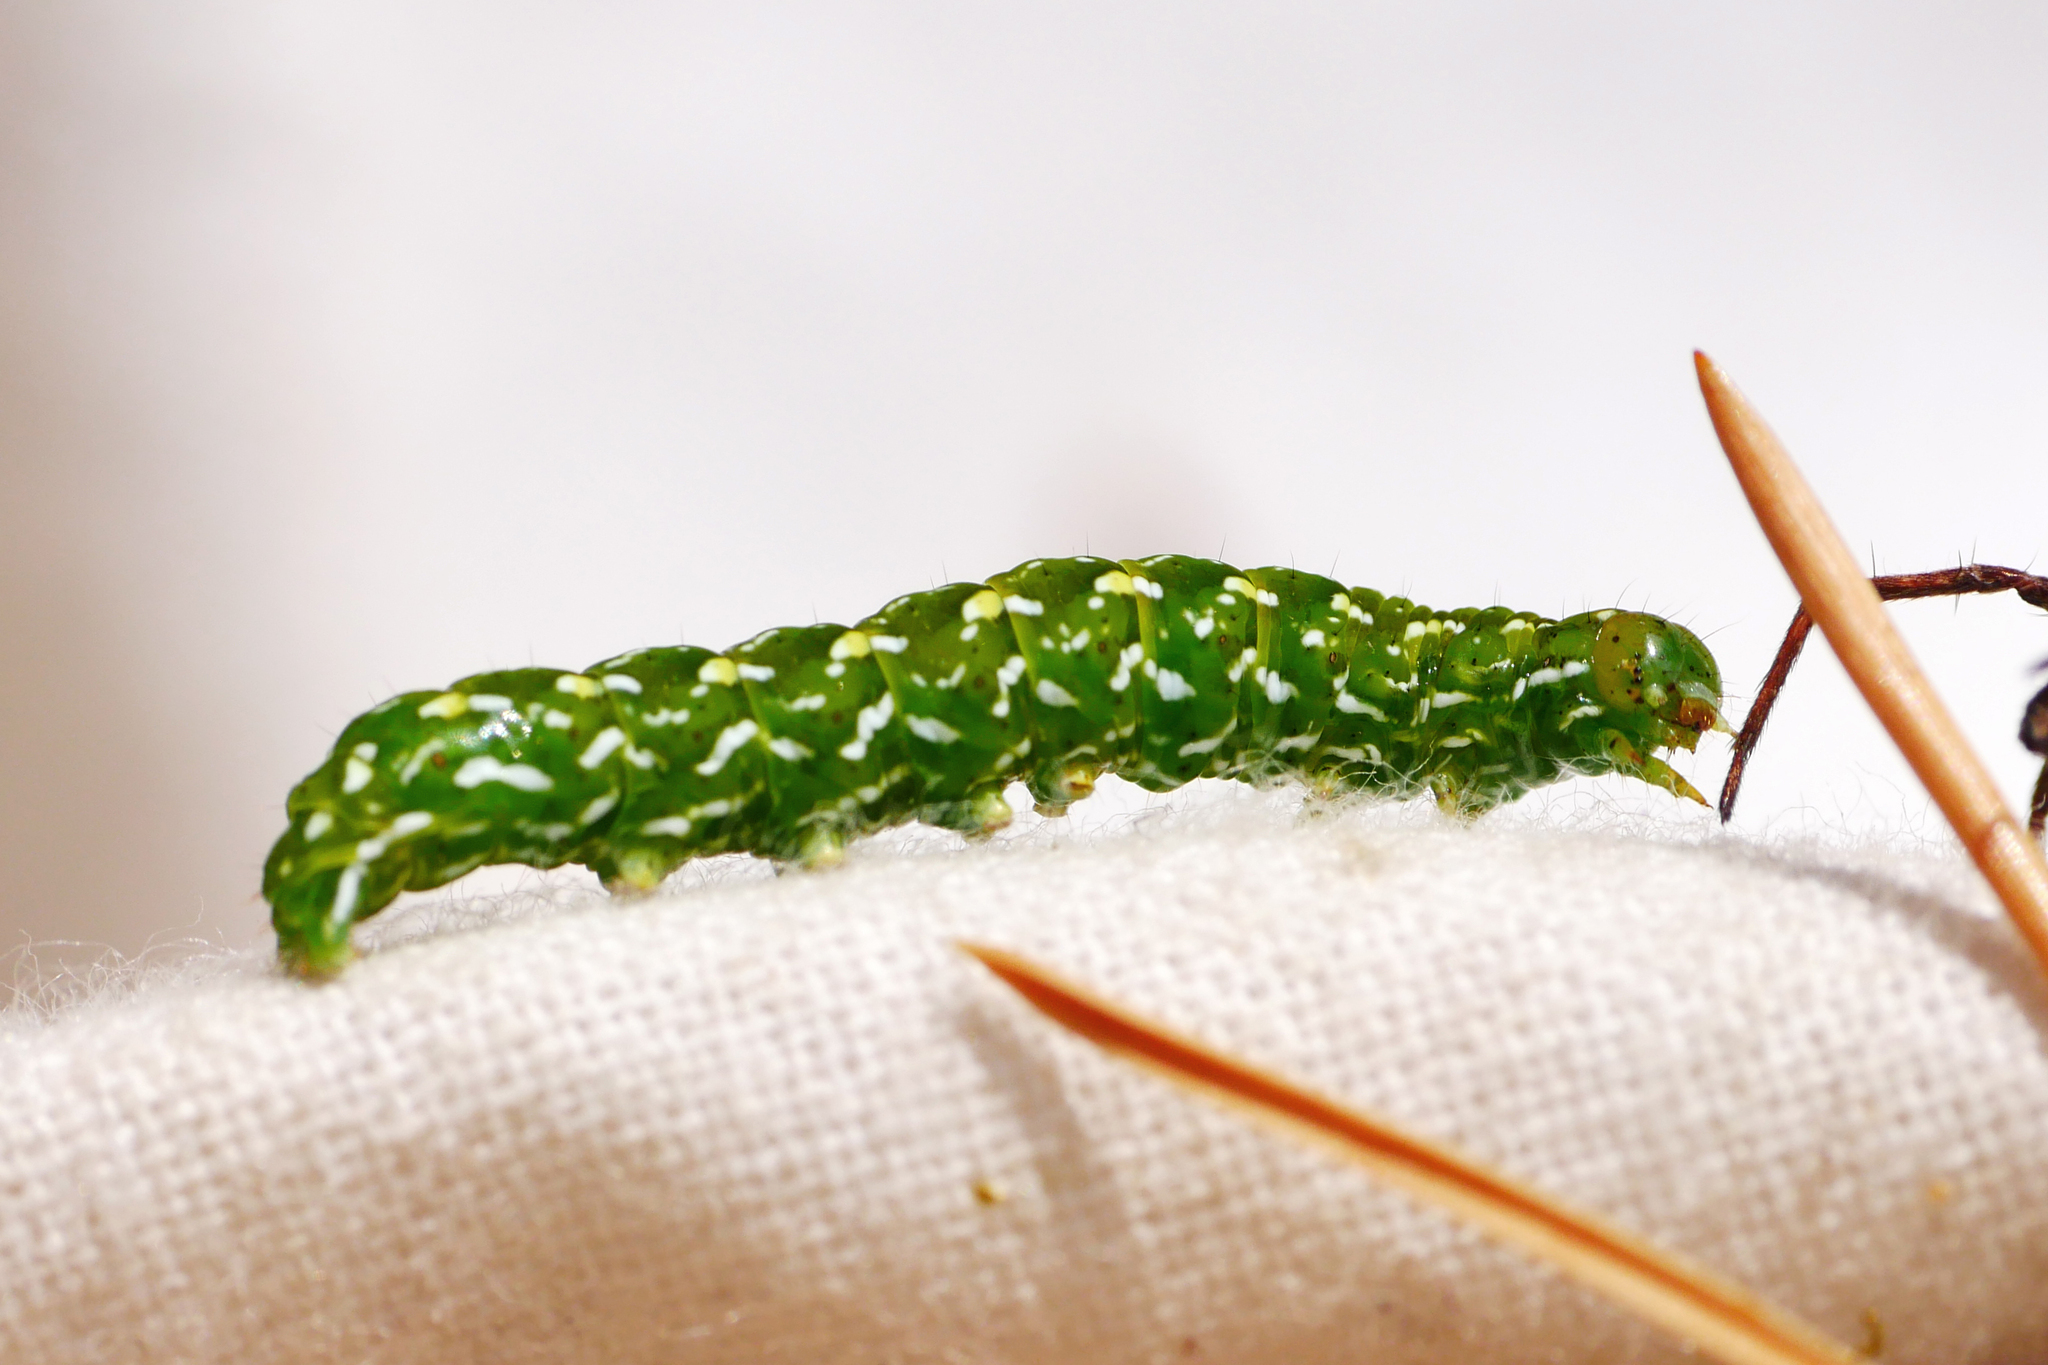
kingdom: Animalia
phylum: Arthropoda
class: Insecta
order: Lepidoptera
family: Noctuidae
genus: Anarta
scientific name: Anarta myrtilli
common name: Beautiful yellow underwing
